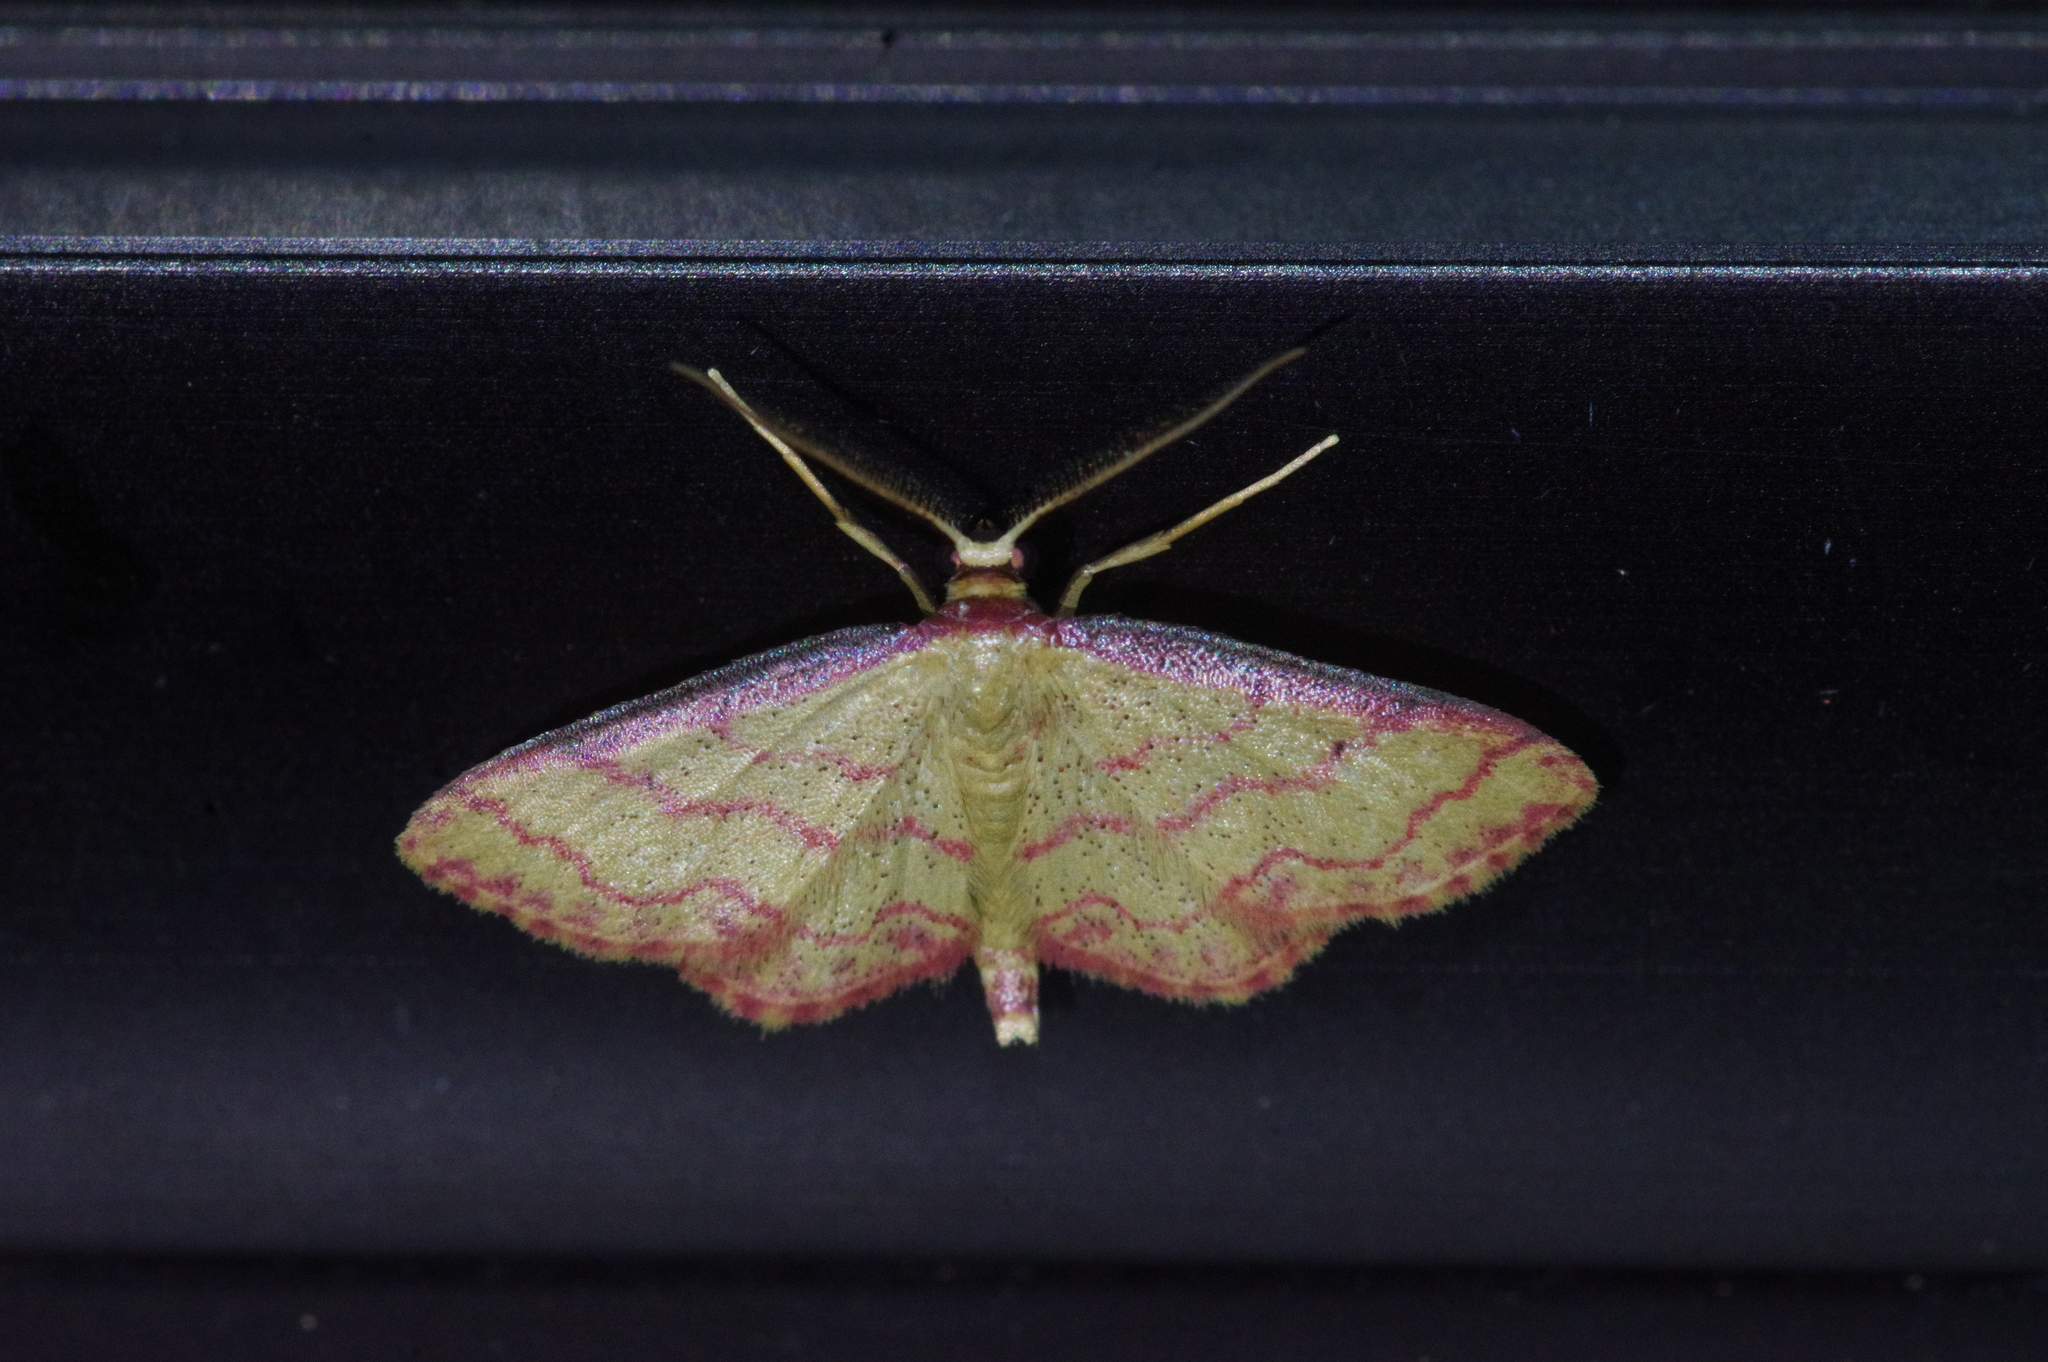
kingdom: Animalia
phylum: Arthropoda
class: Insecta
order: Lepidoptera
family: Geometridae
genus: Idaea
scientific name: Idaea okinawensis
